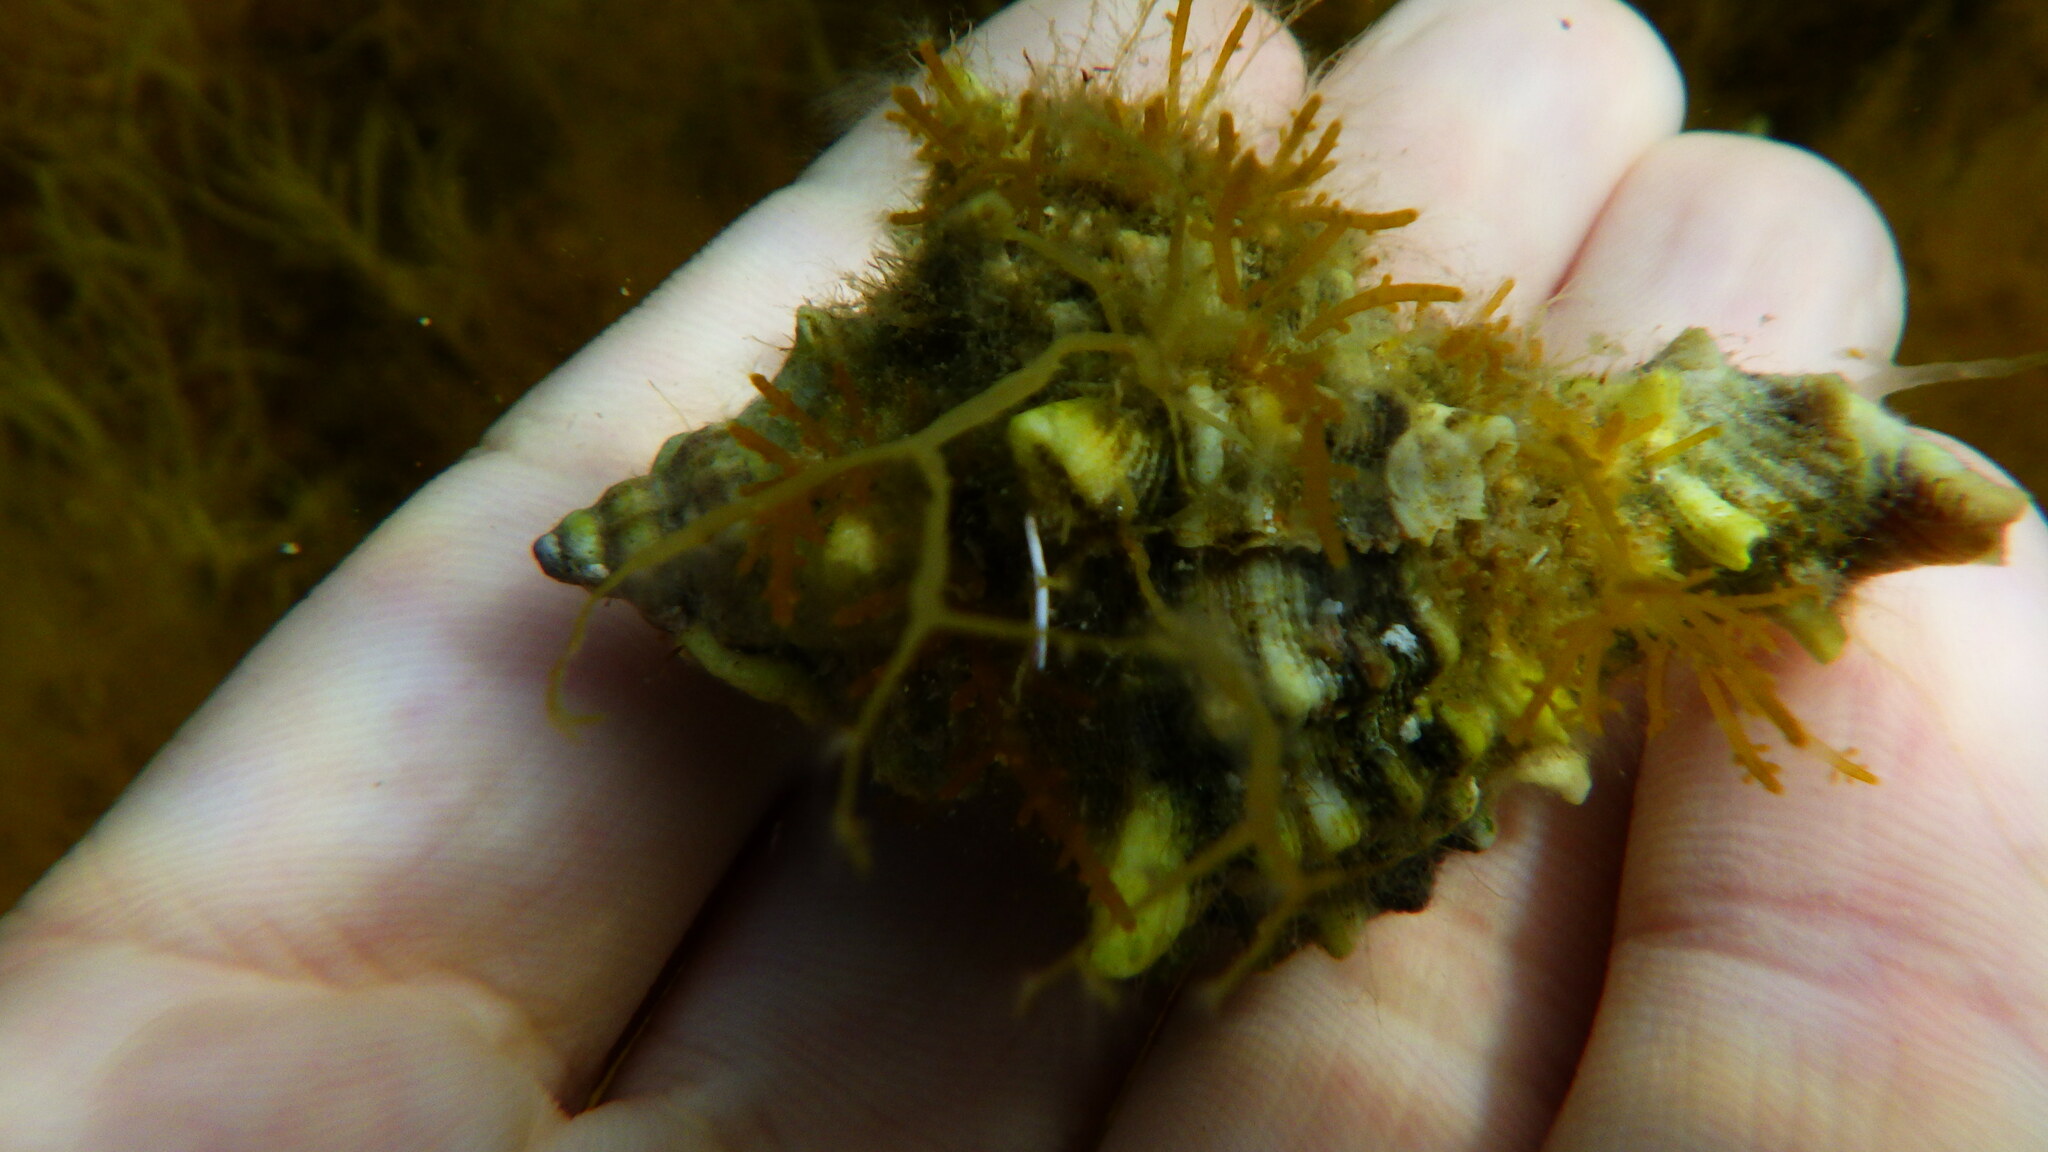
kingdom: Animalia
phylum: Mollusca
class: Gastropoda
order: Neogastropoda
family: Muricidae
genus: Hexaplex
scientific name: Hexaplex trunculus
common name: Banded dye-murex
